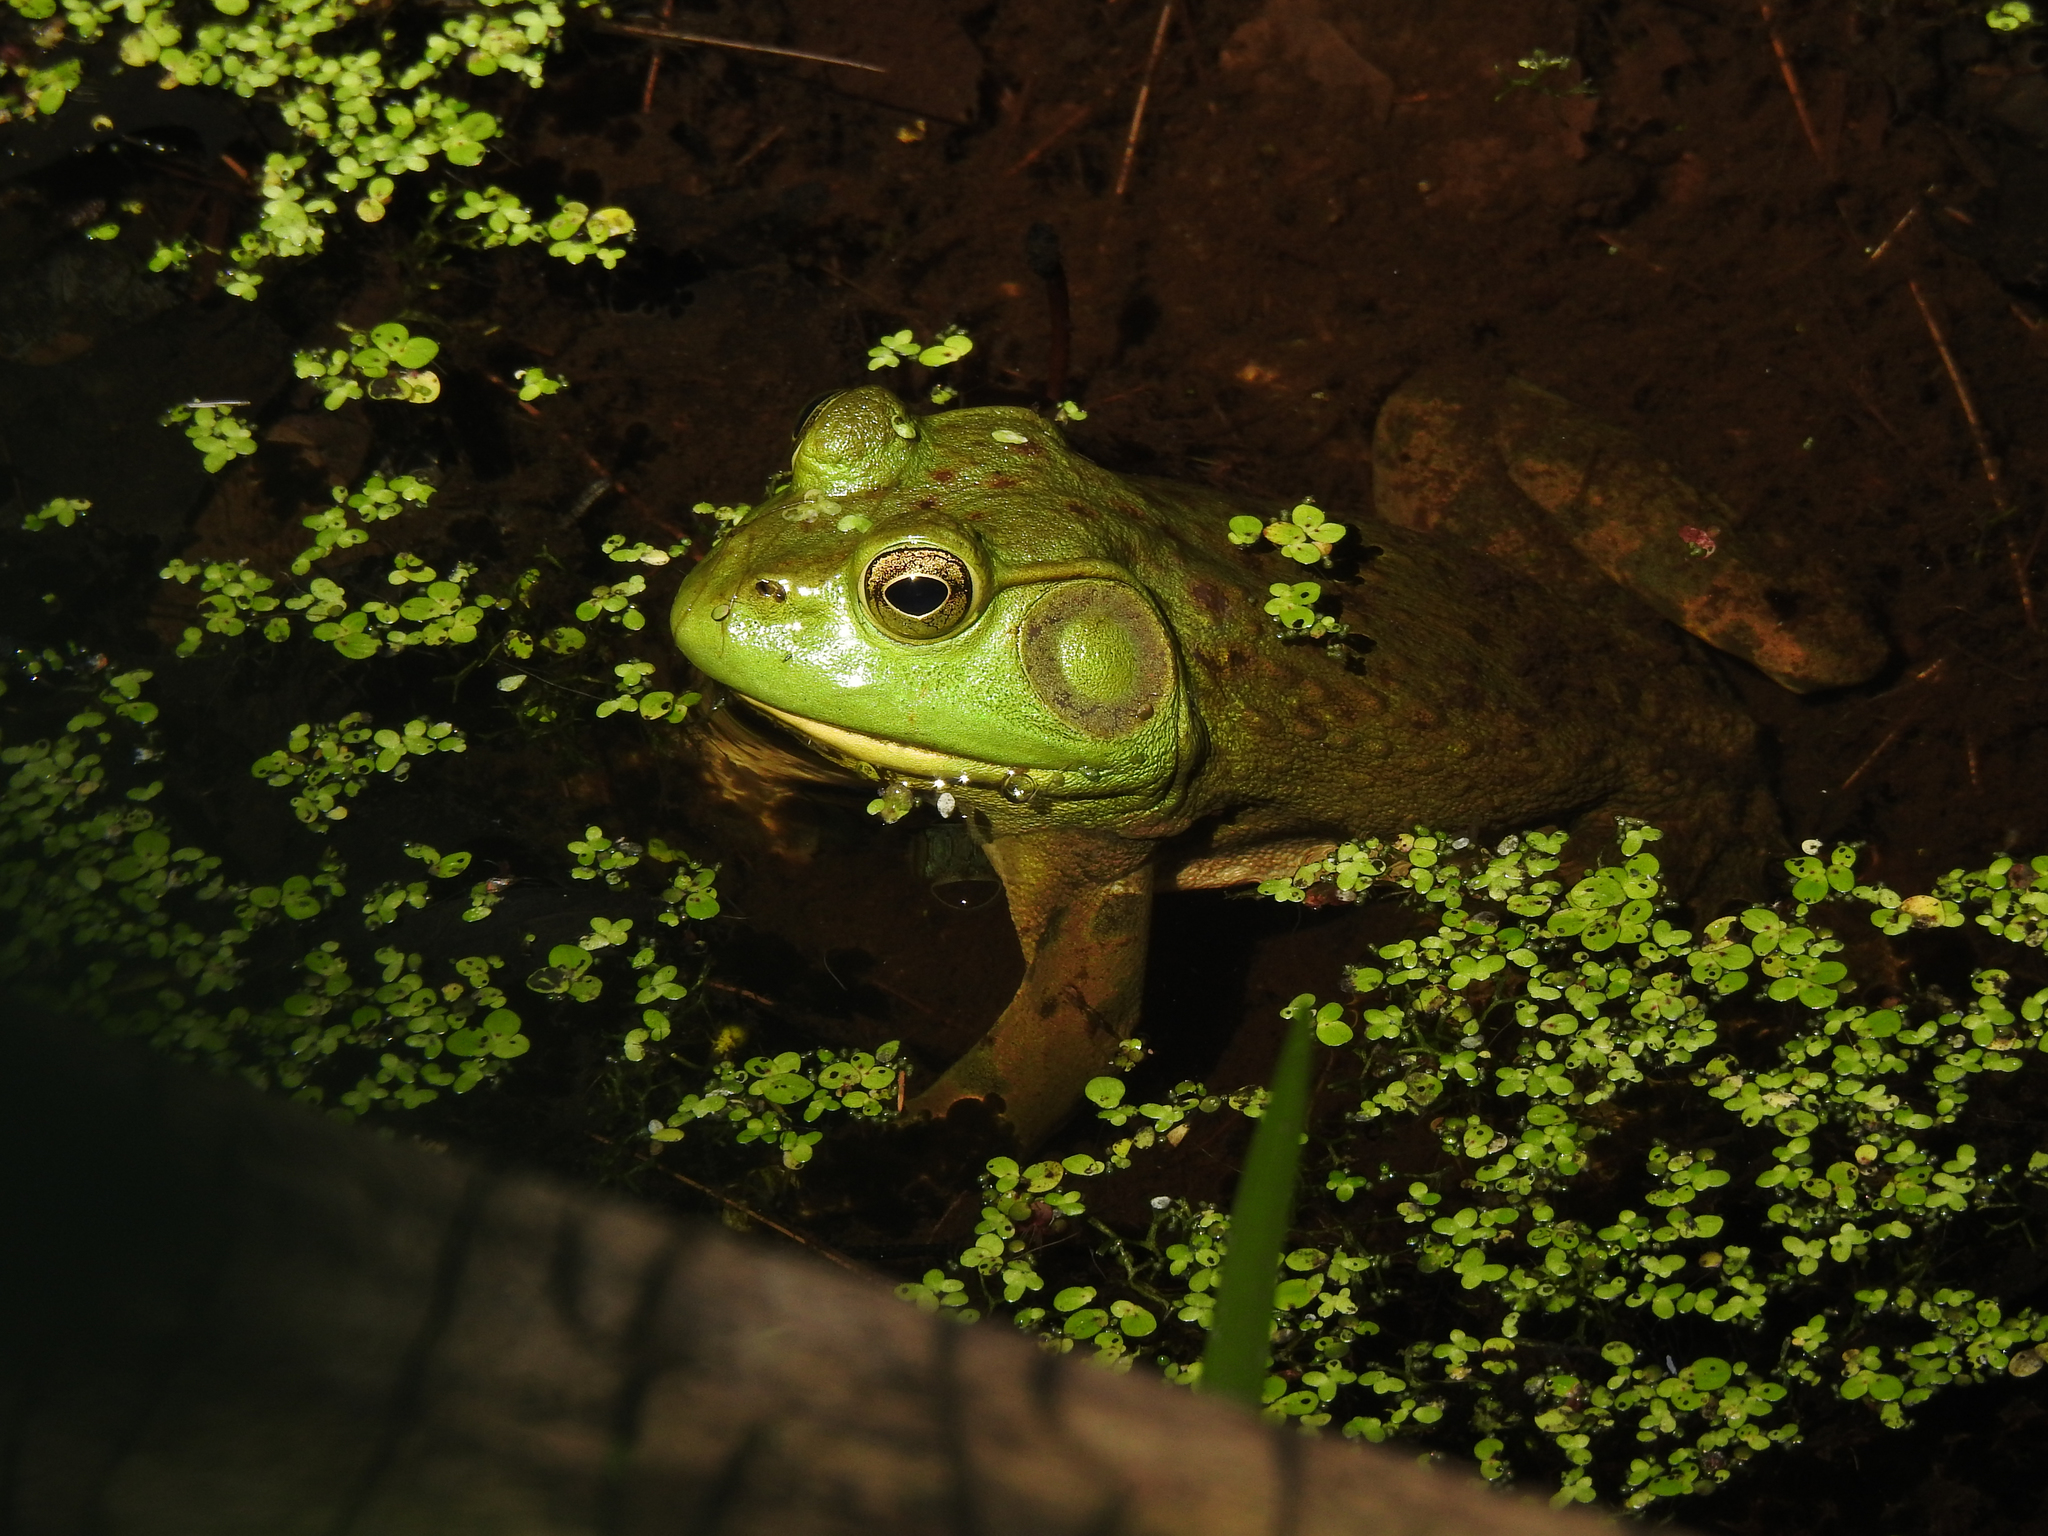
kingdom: Animalia
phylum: Chordata
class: Amphibia
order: Anura
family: Ranidae
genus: Lithobates
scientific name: Lithobates catesbeianus
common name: American bullfrog
